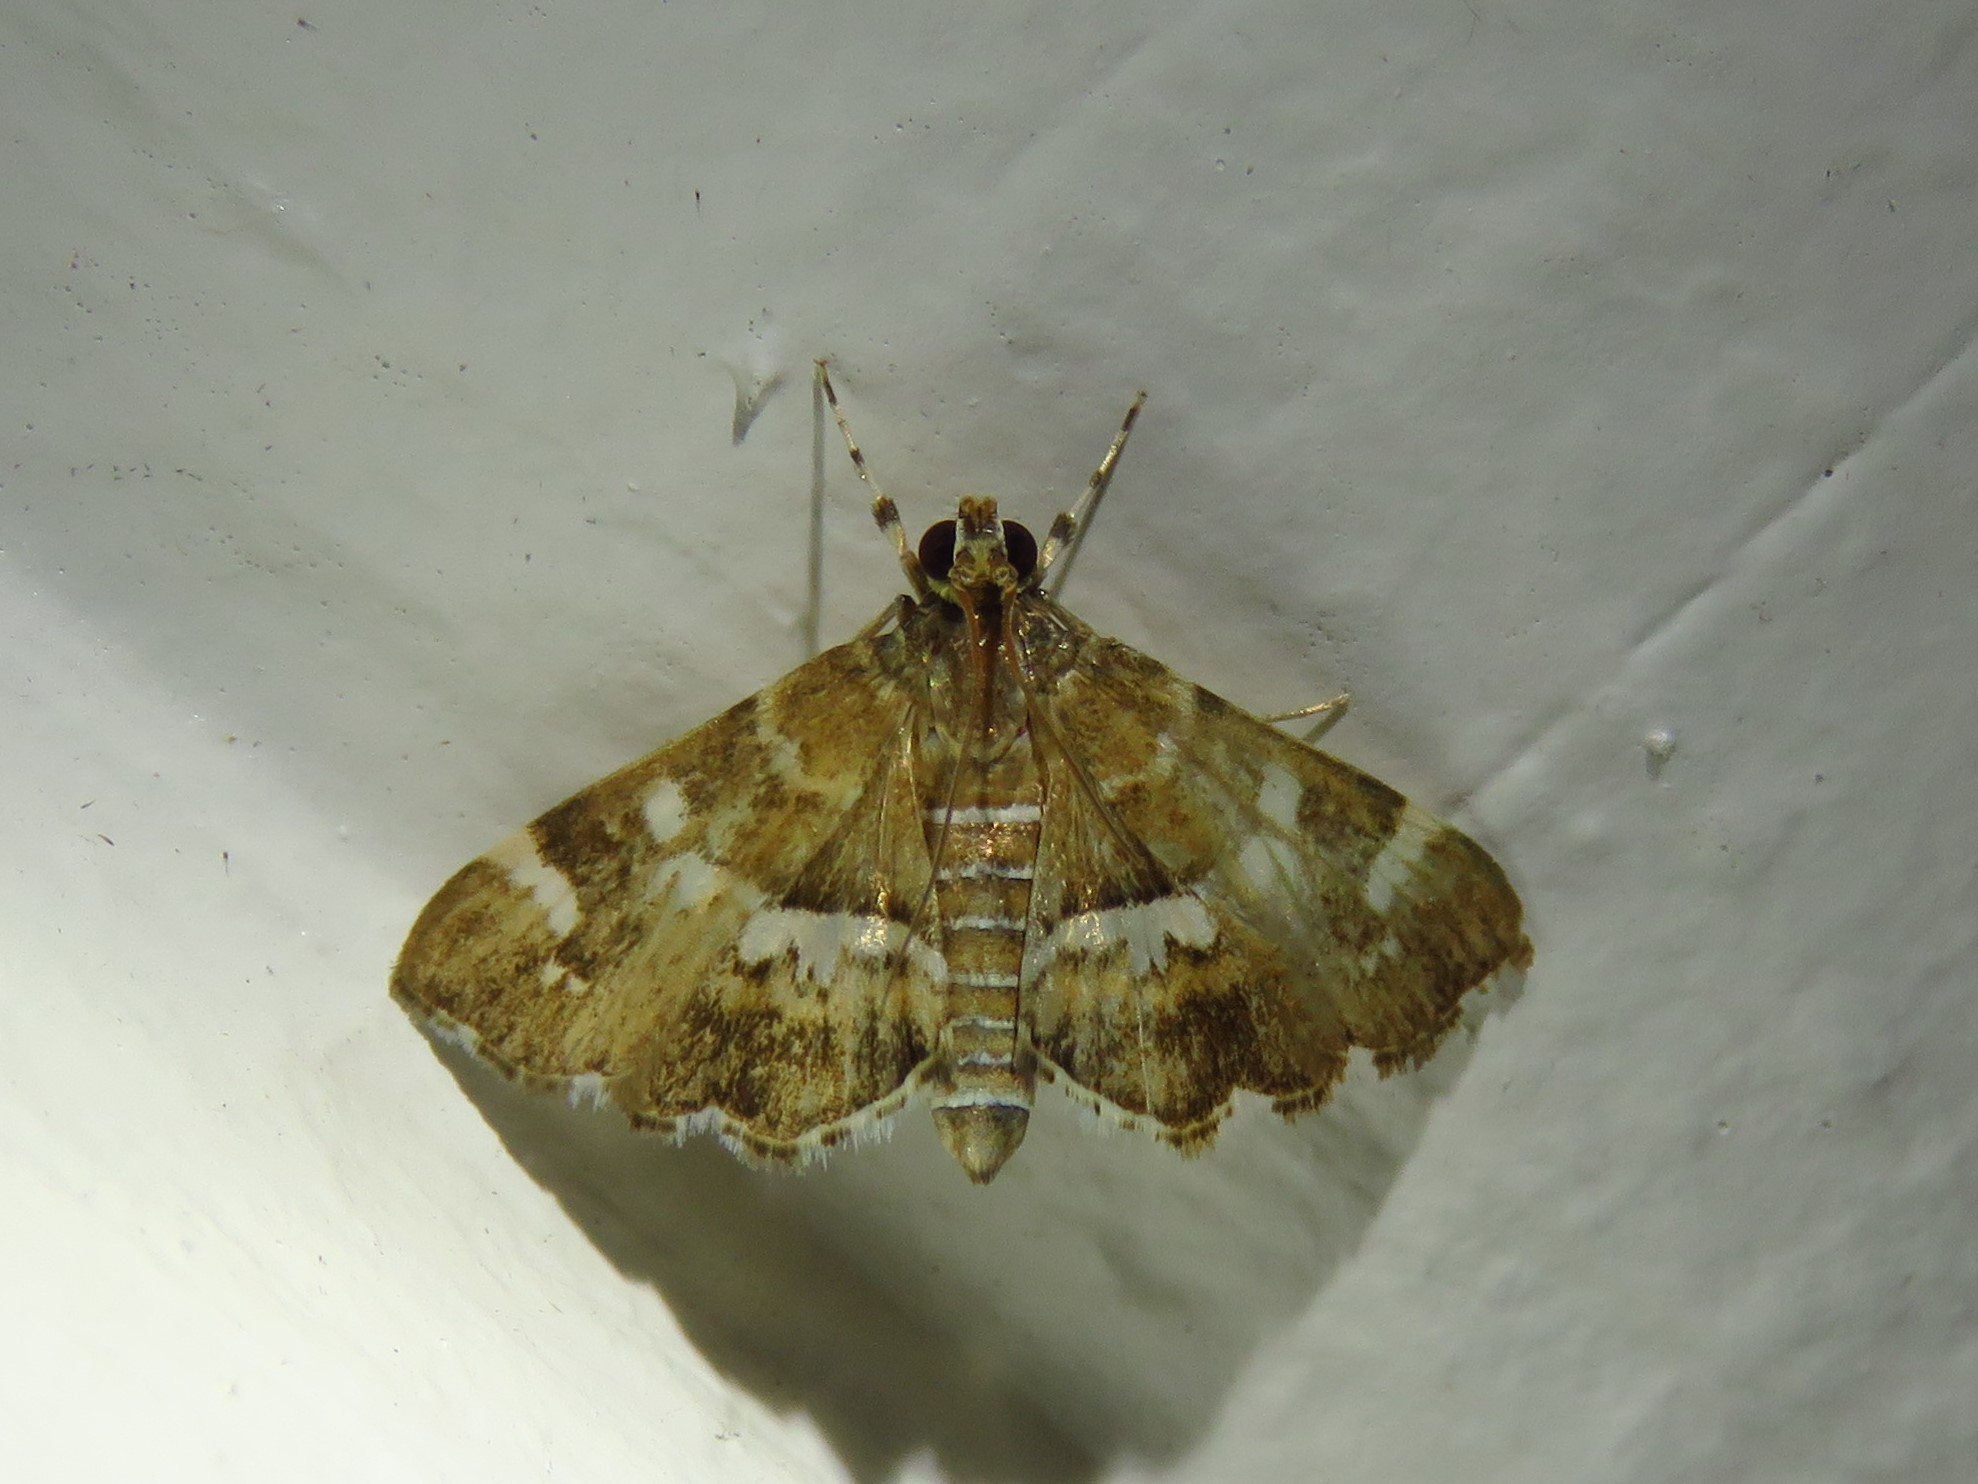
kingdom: Animalia
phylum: Arthropoda
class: Insecta
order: Lepidoptera
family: Crambidae
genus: Hymenia
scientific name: Hymenia perspectalis
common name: Spotted beet webworm
